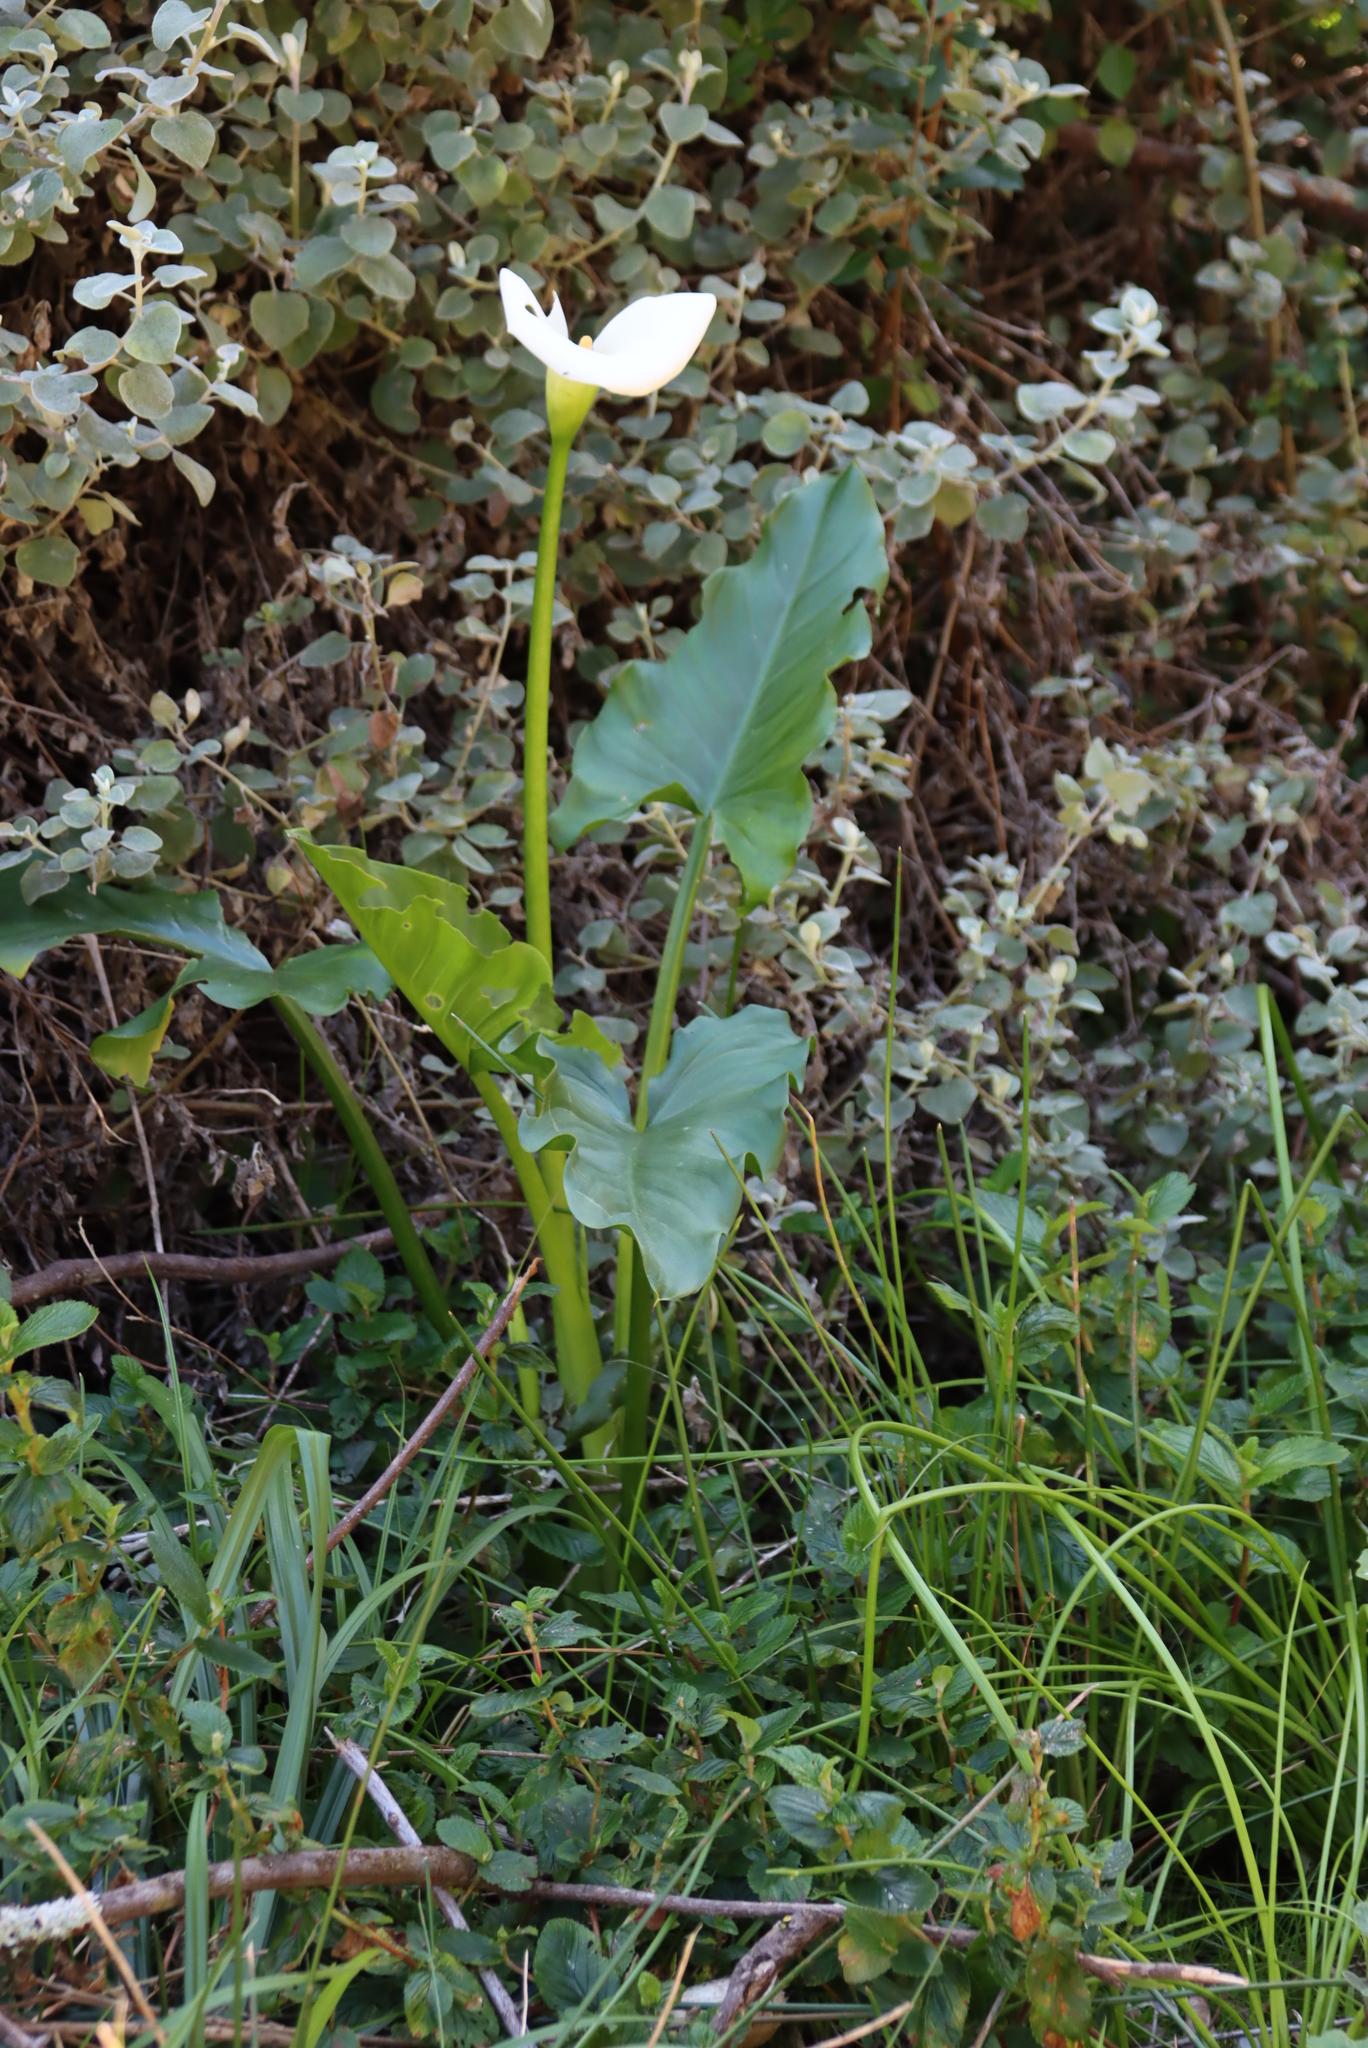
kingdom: Plantae
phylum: Tracheophyta
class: Liliopsida
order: Alismatales
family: Araceae
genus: Zantedeschia
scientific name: Zantedeschia aethiopica
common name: Altar-lily
